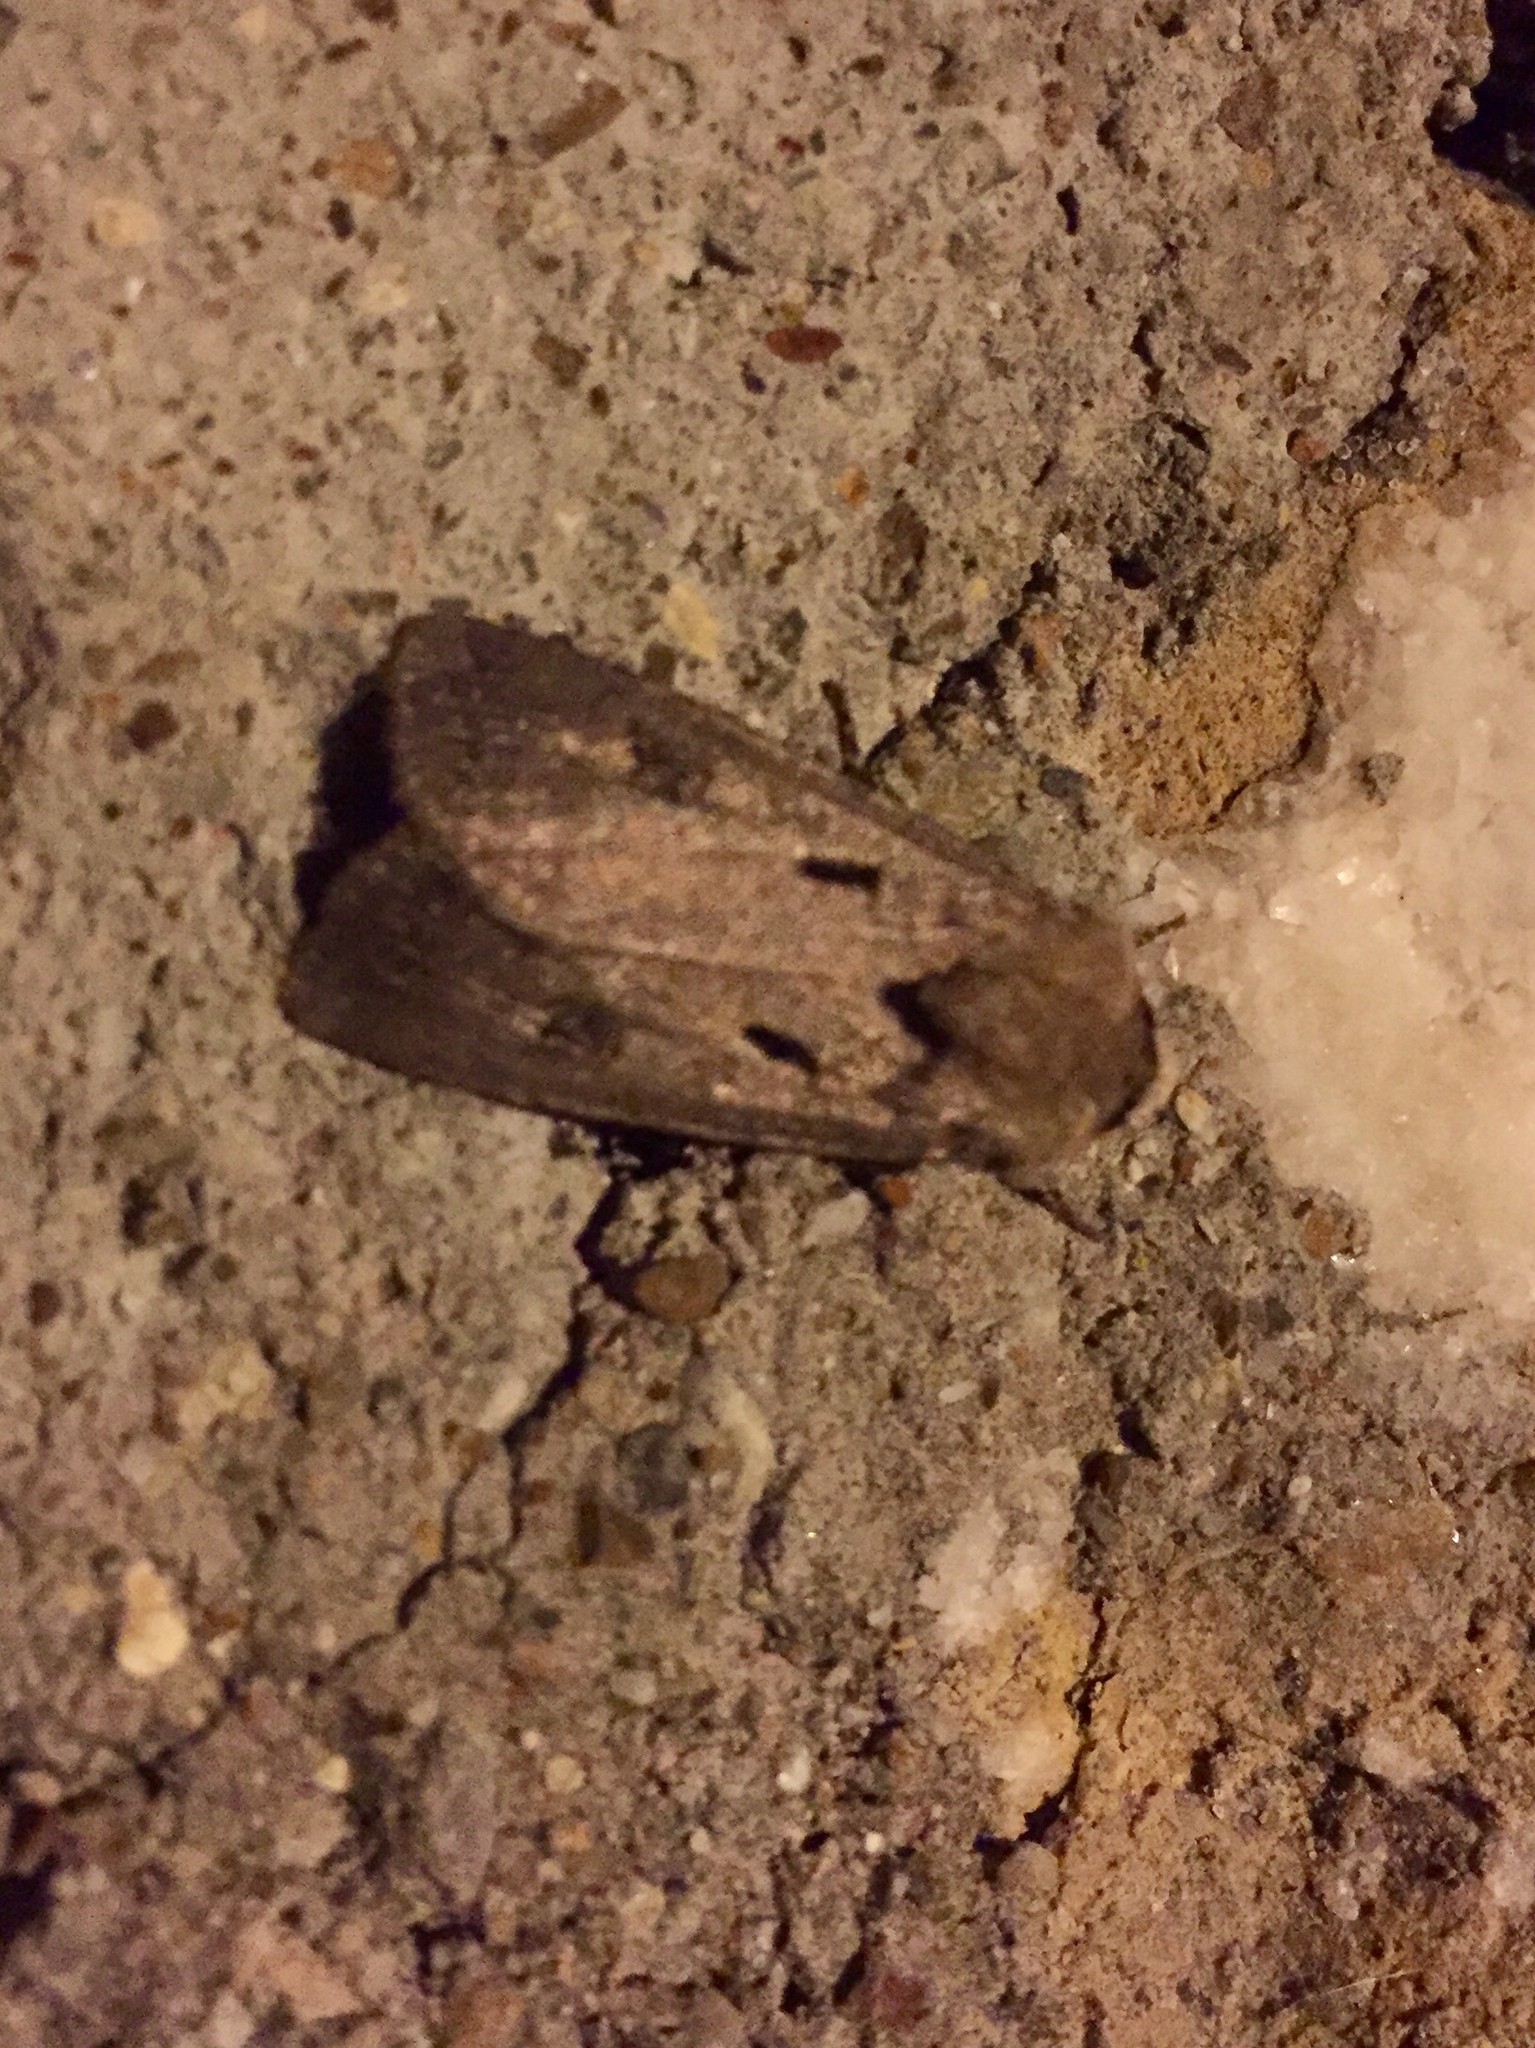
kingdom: Animalia
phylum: Arthropoda
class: Insecta
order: Lepidoptera
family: Noctuidae
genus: Agrotis
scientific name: Agrotis exclamationis
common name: Heart and dart
